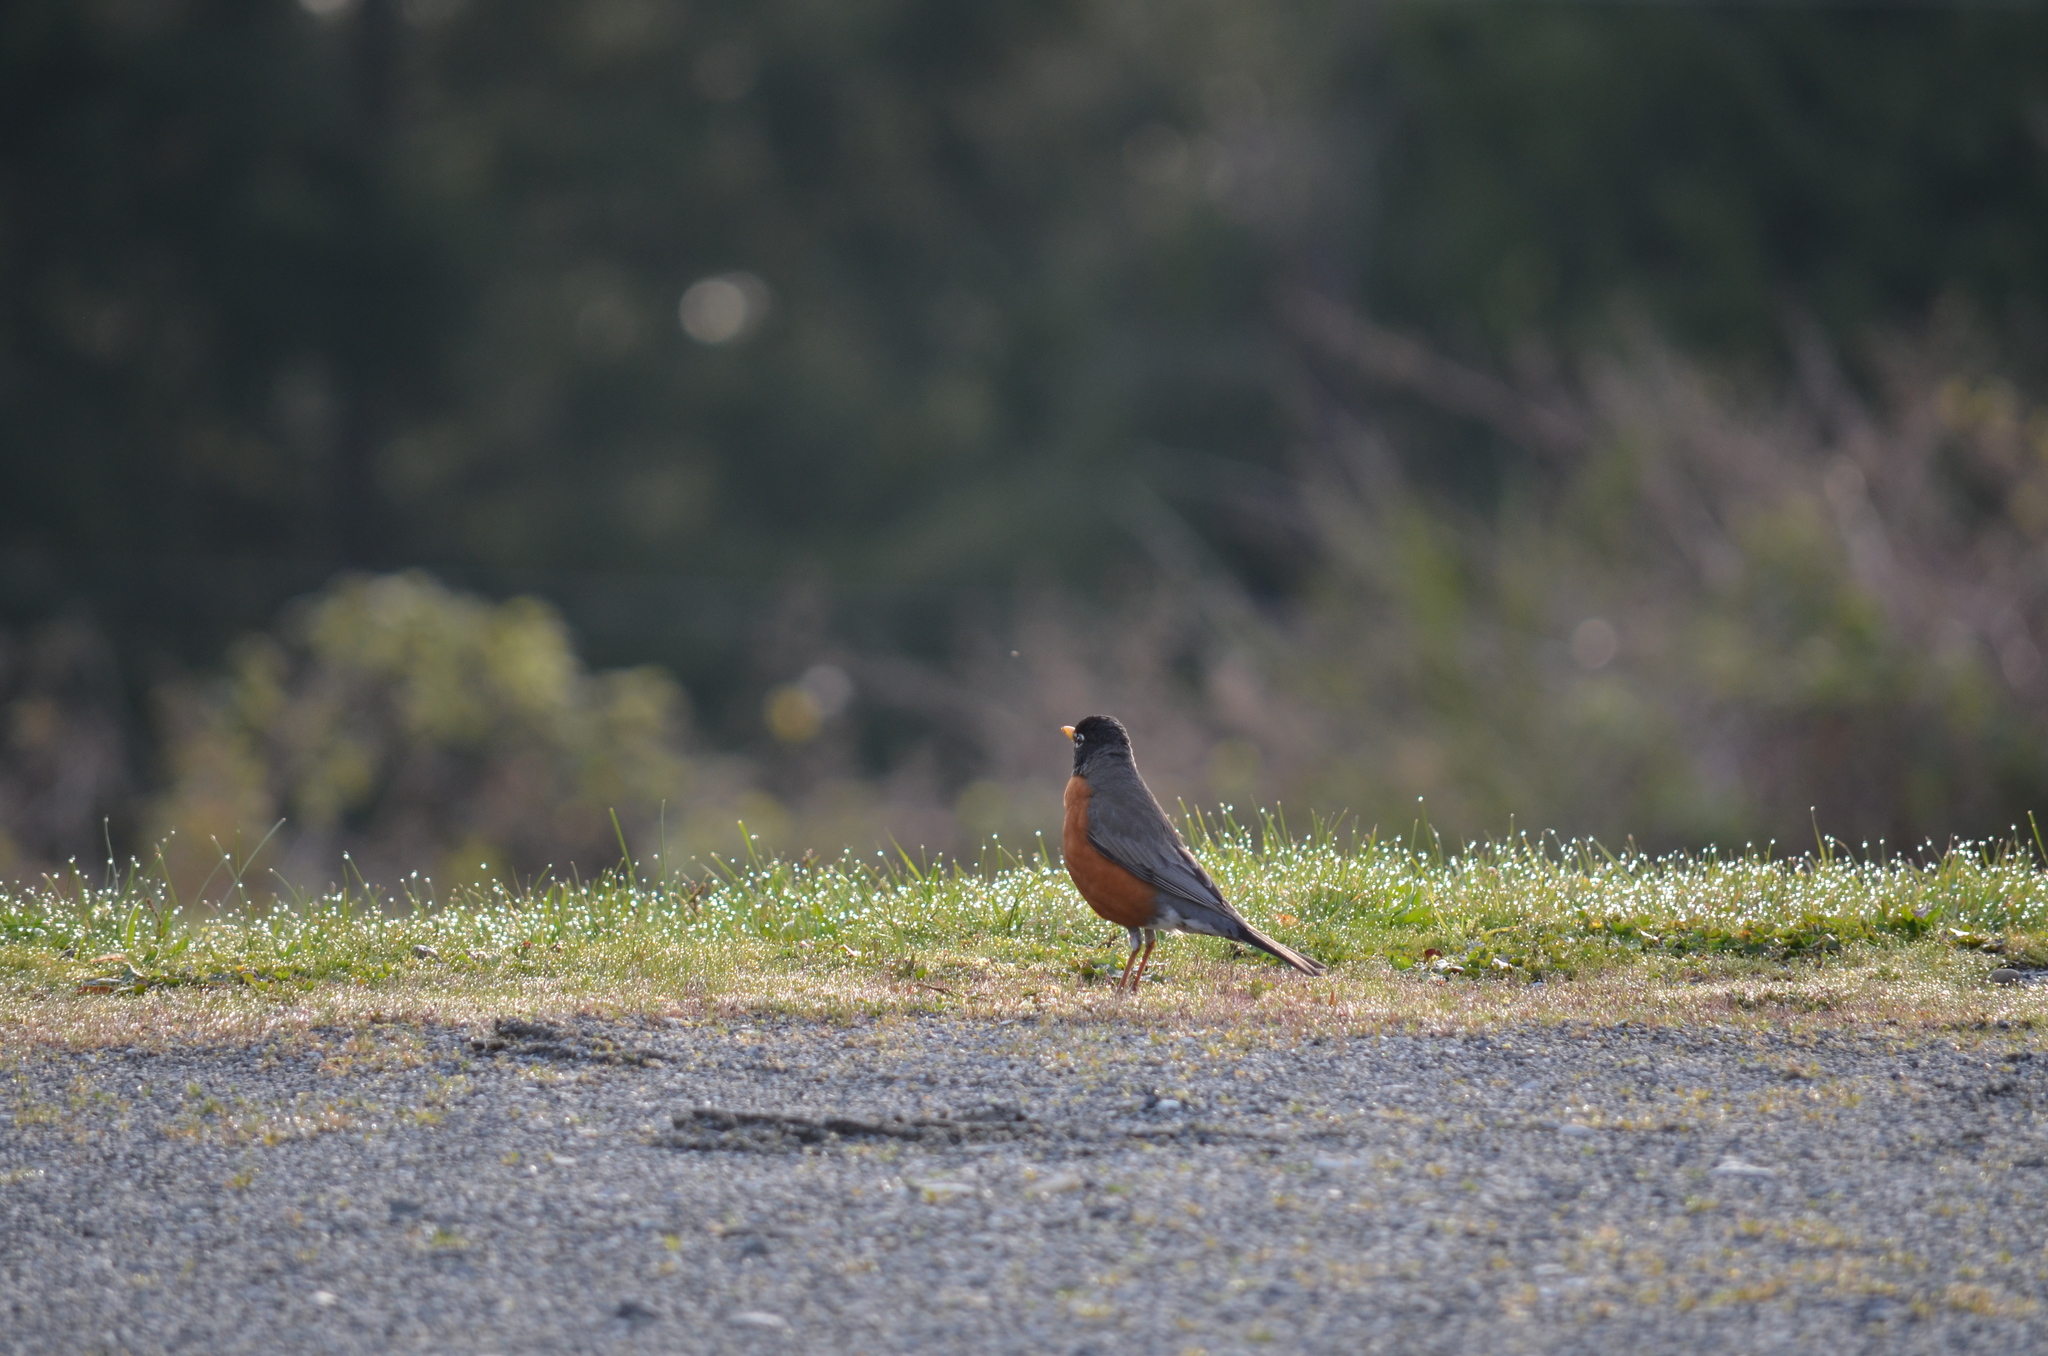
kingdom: Animalia
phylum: Chordata
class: Aves
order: Passeriformes
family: Turdidae
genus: Turdus
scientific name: Turdus migratorius
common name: American robin
